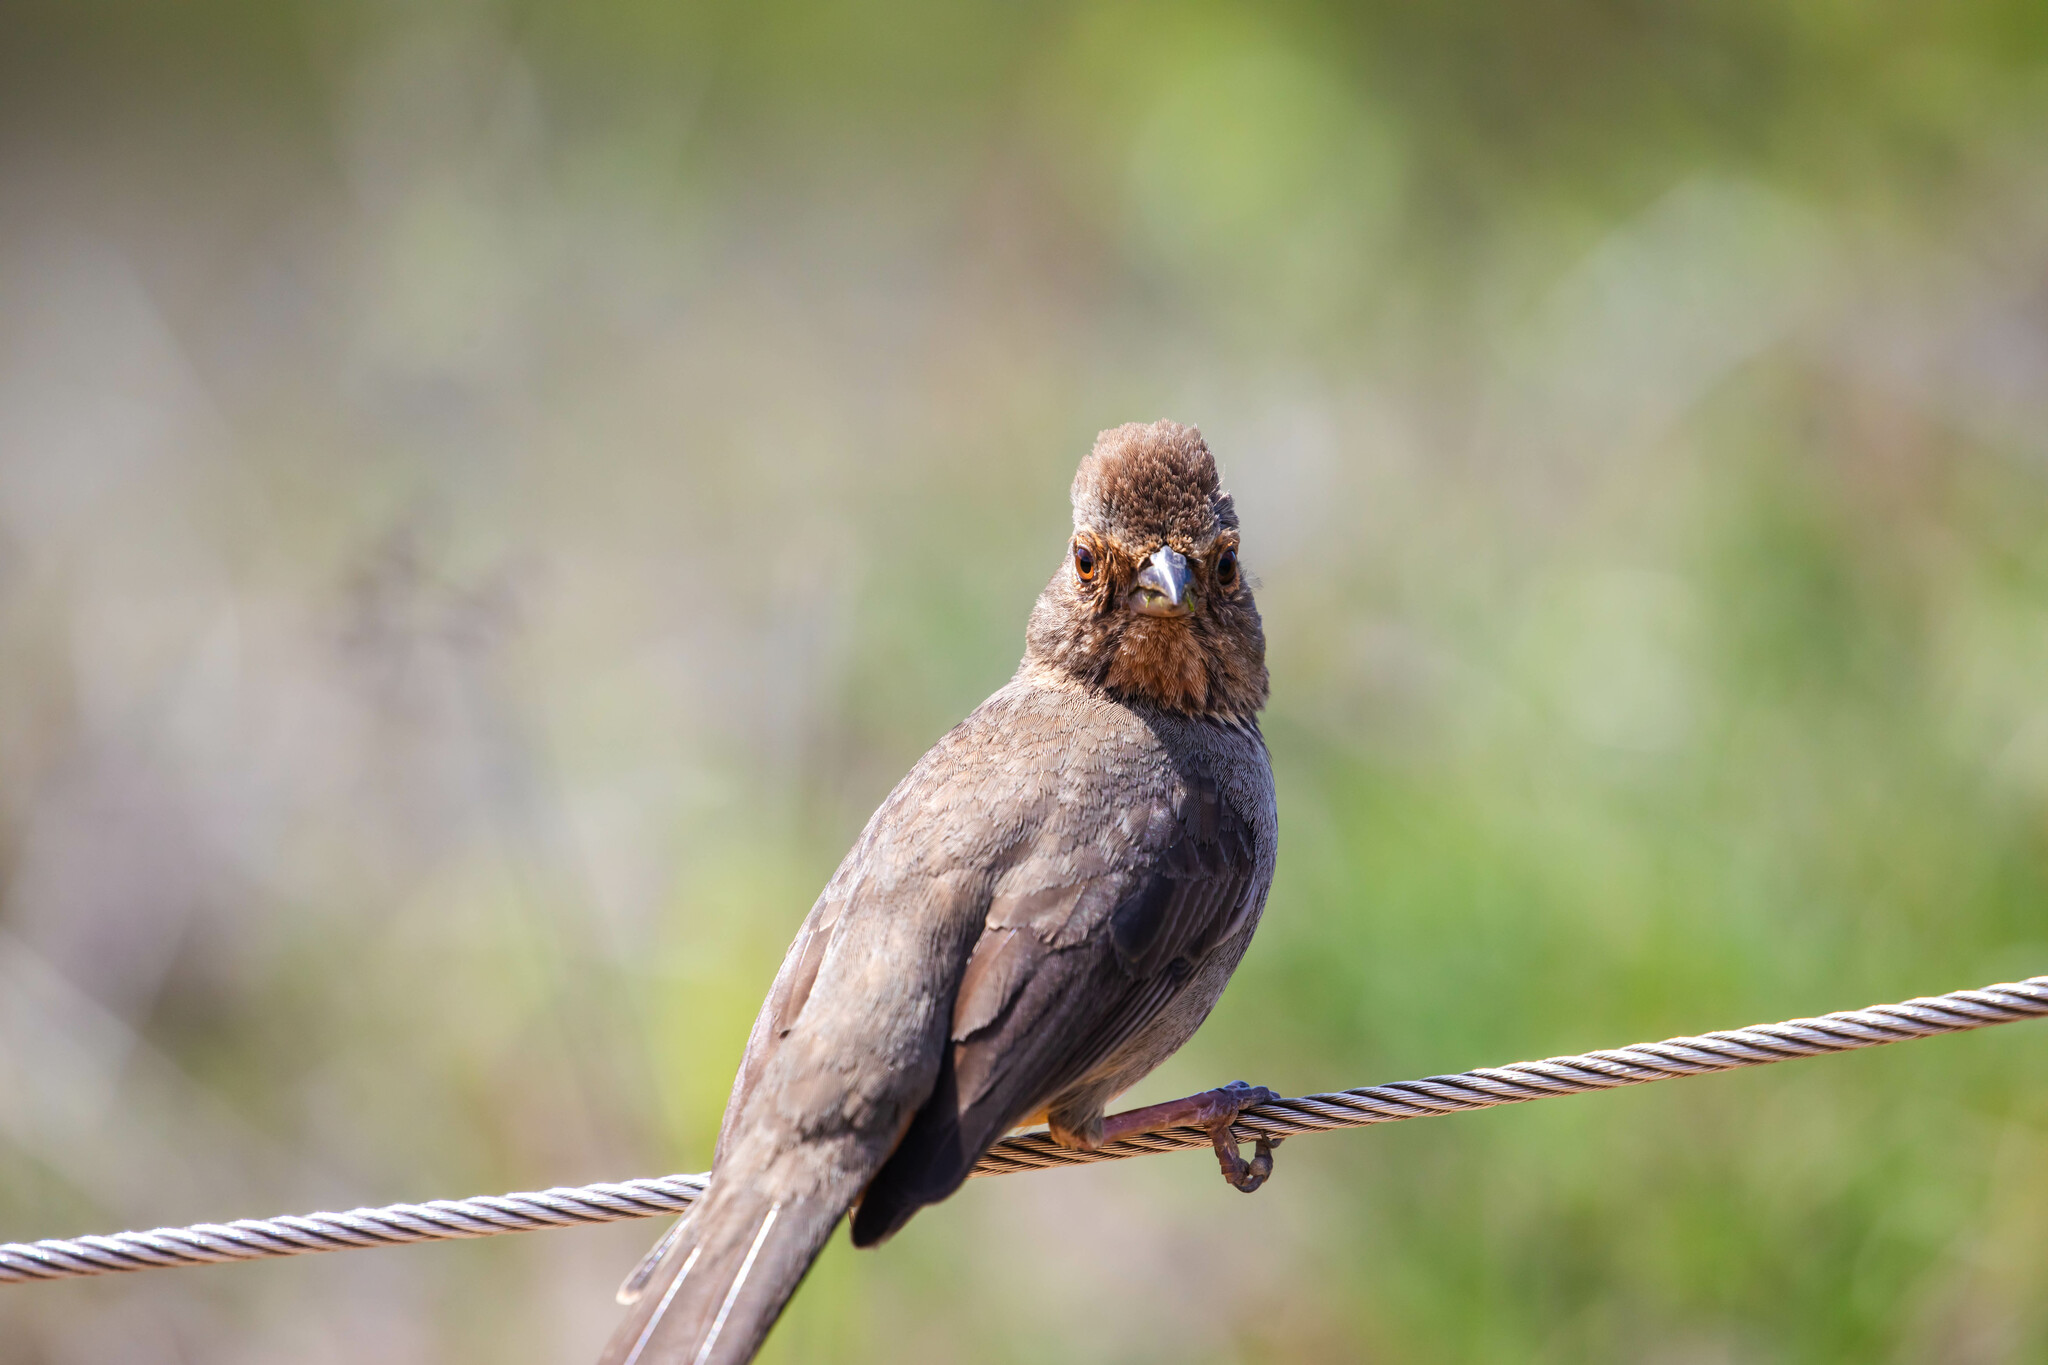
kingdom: Animalia
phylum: Chordata
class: Aves
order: Passeriformes
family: Passerellidae
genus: Melozone
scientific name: Melozone crissalis
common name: California towhee
